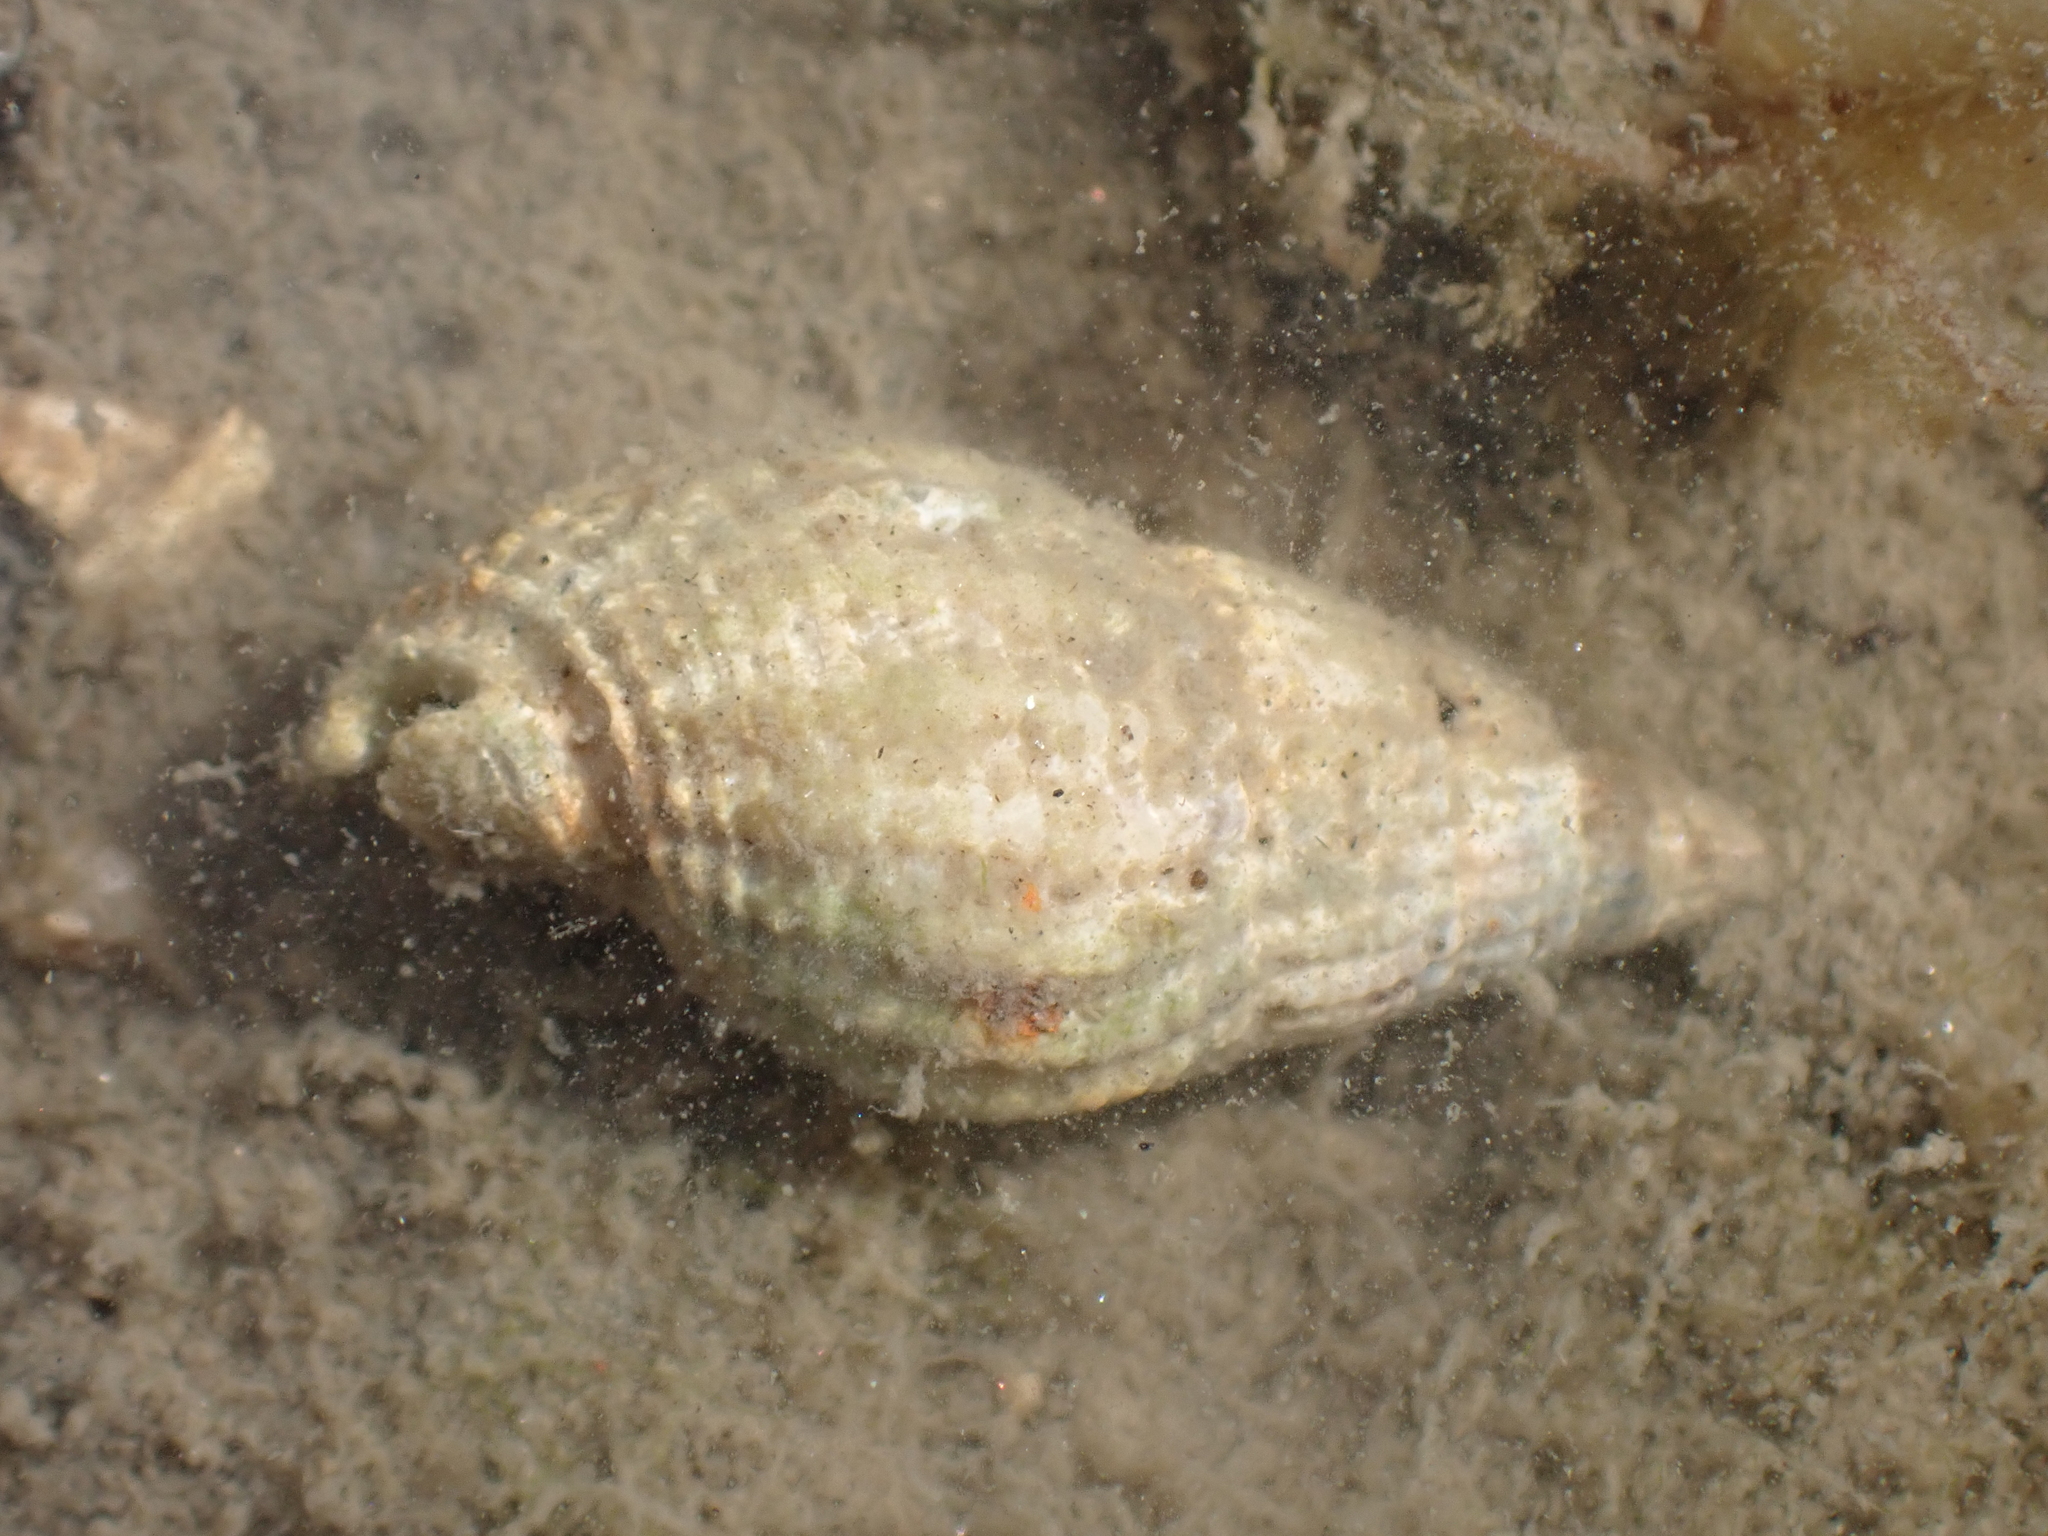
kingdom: Animalia
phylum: Mollusca
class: Gastropoda
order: Neogastropoda
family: Nassariidae
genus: Tritia
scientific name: Tritia reticulata
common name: Netted dog whelk
